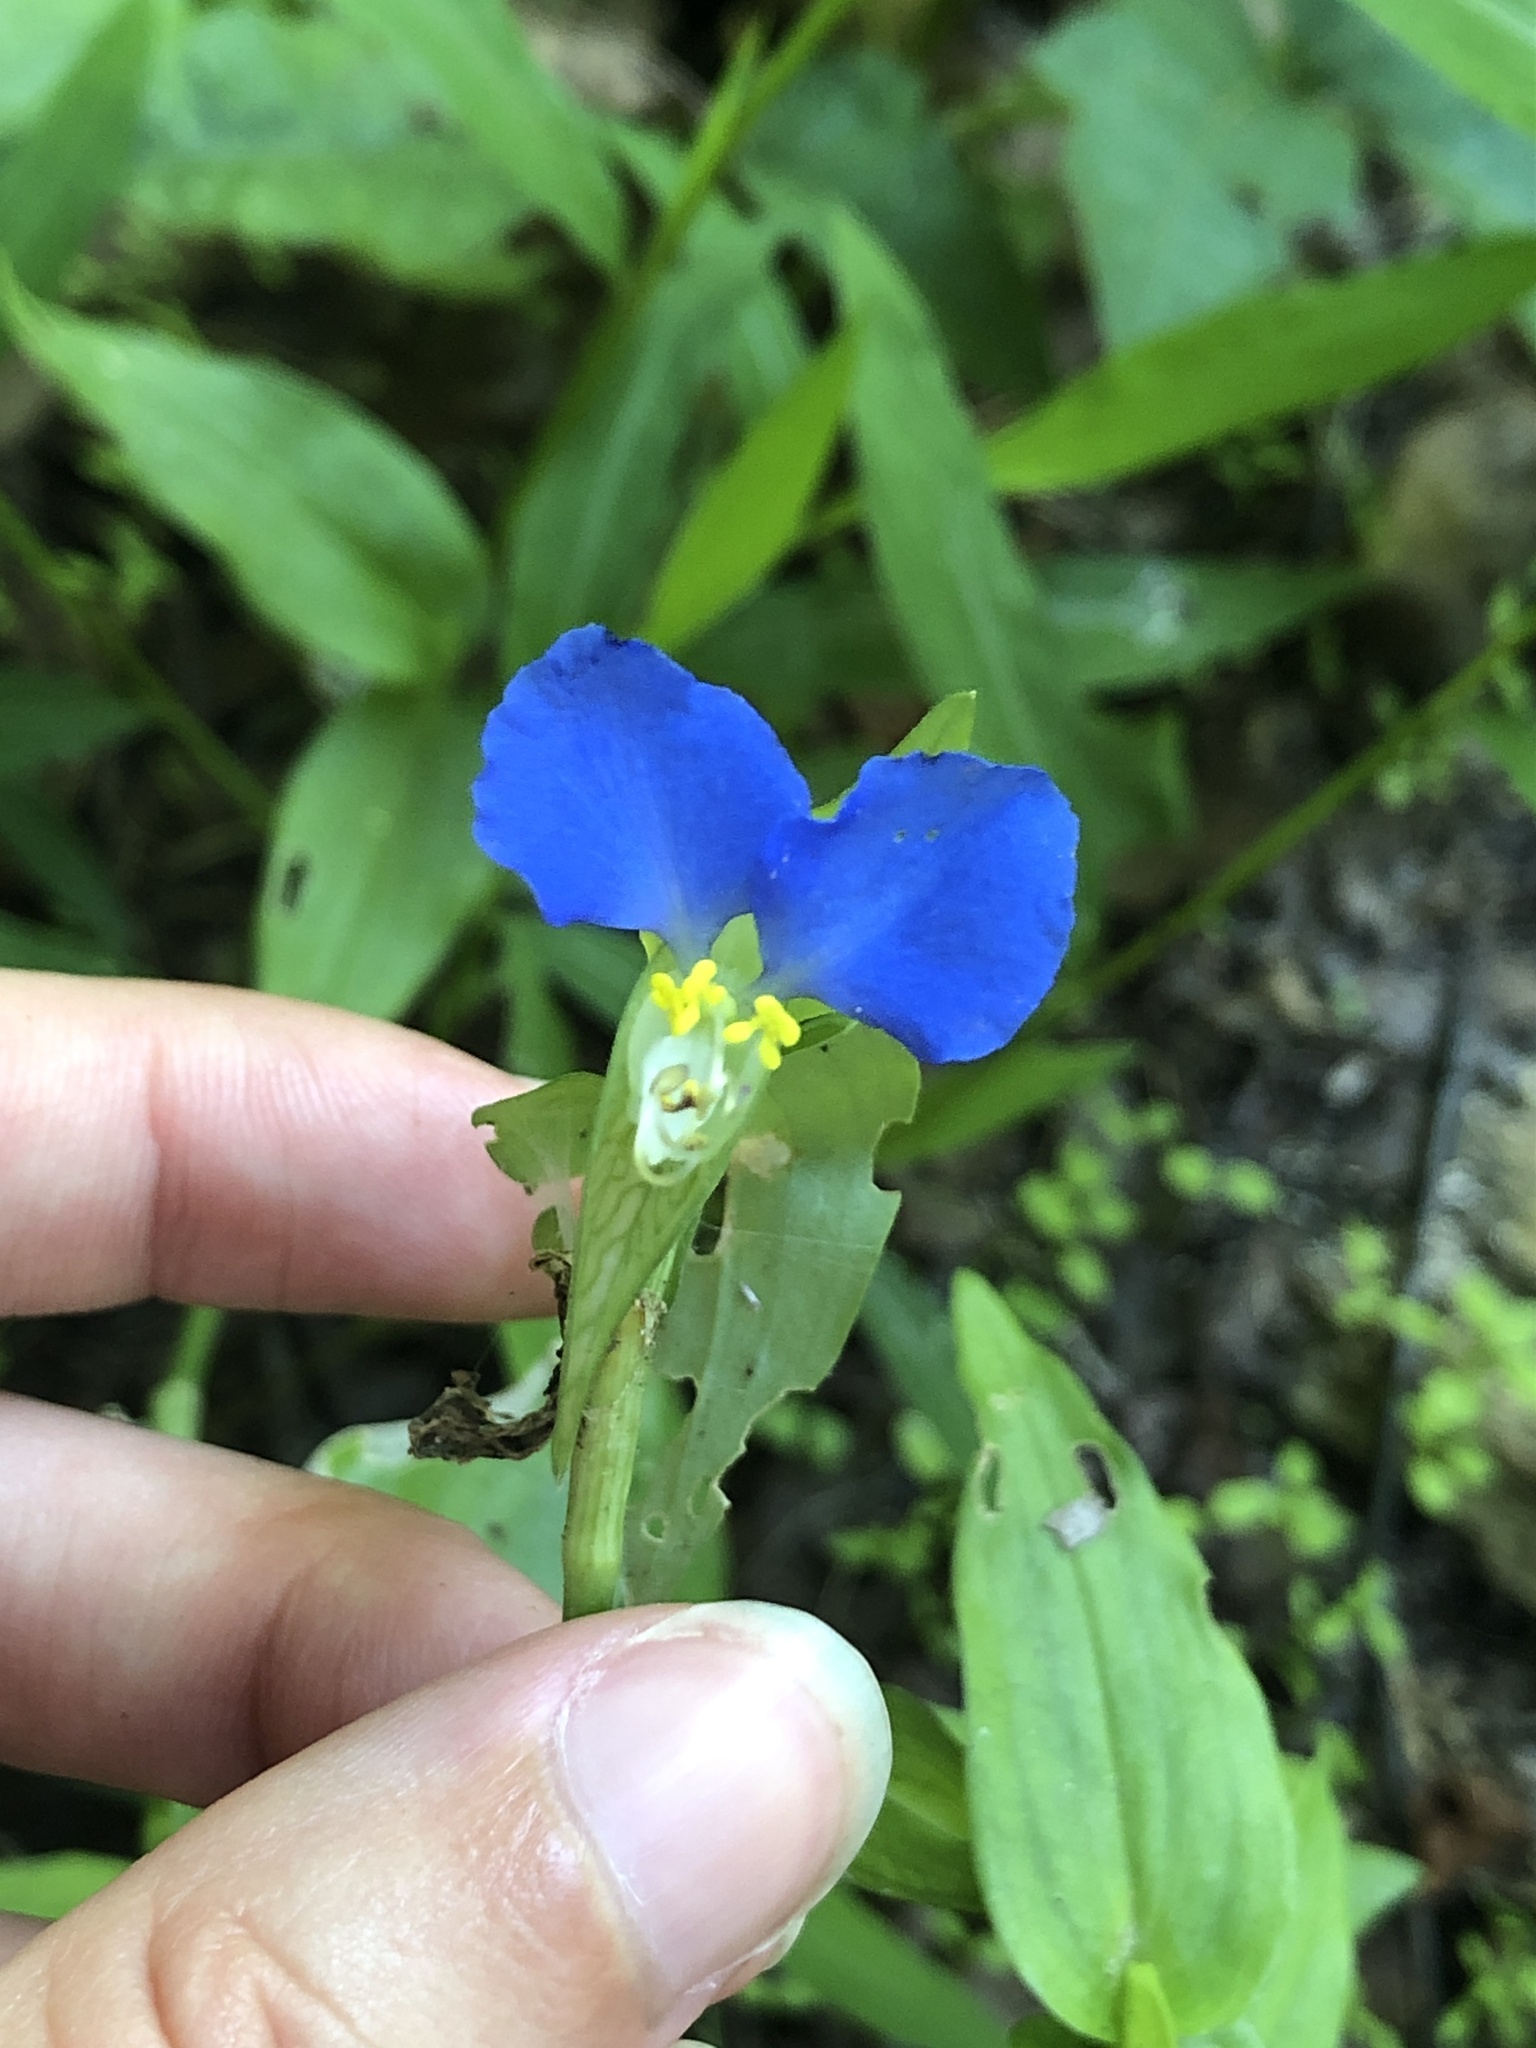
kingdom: Plantae
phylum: Tracheophyta
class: Liliopsida
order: Commelinales
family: Commelinaceae
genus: Commelina
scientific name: Commelina communis
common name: Asiatic dayflower
